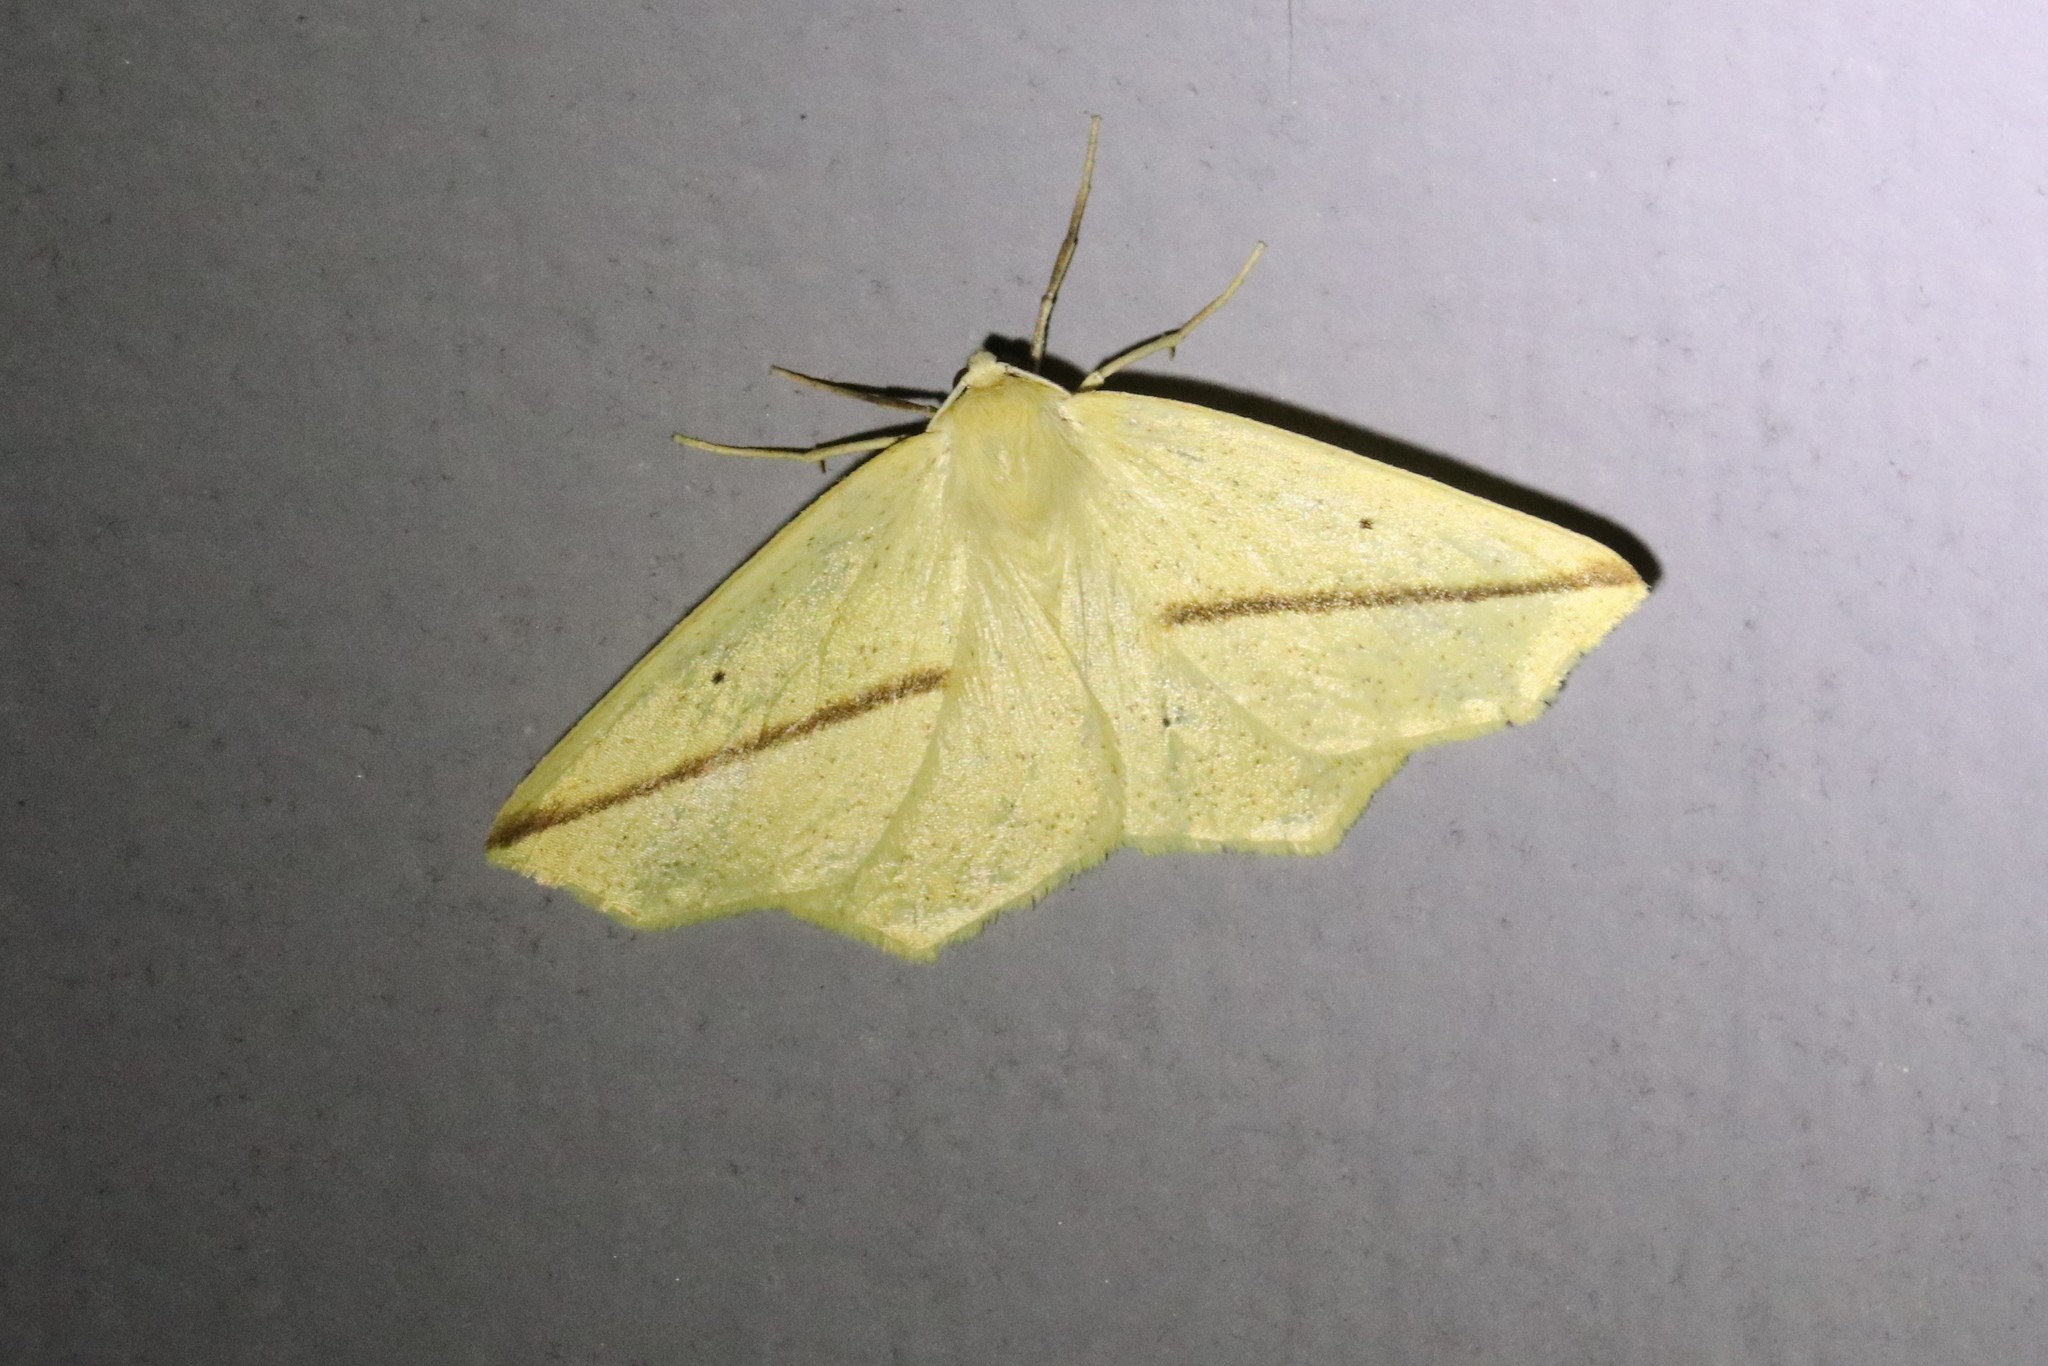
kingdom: Animalia
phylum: Arthropoda
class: Insecta
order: Lepidoptera
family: Geometridae
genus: Tetracis
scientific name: Tetracis crocallata
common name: Yellow slant-line
